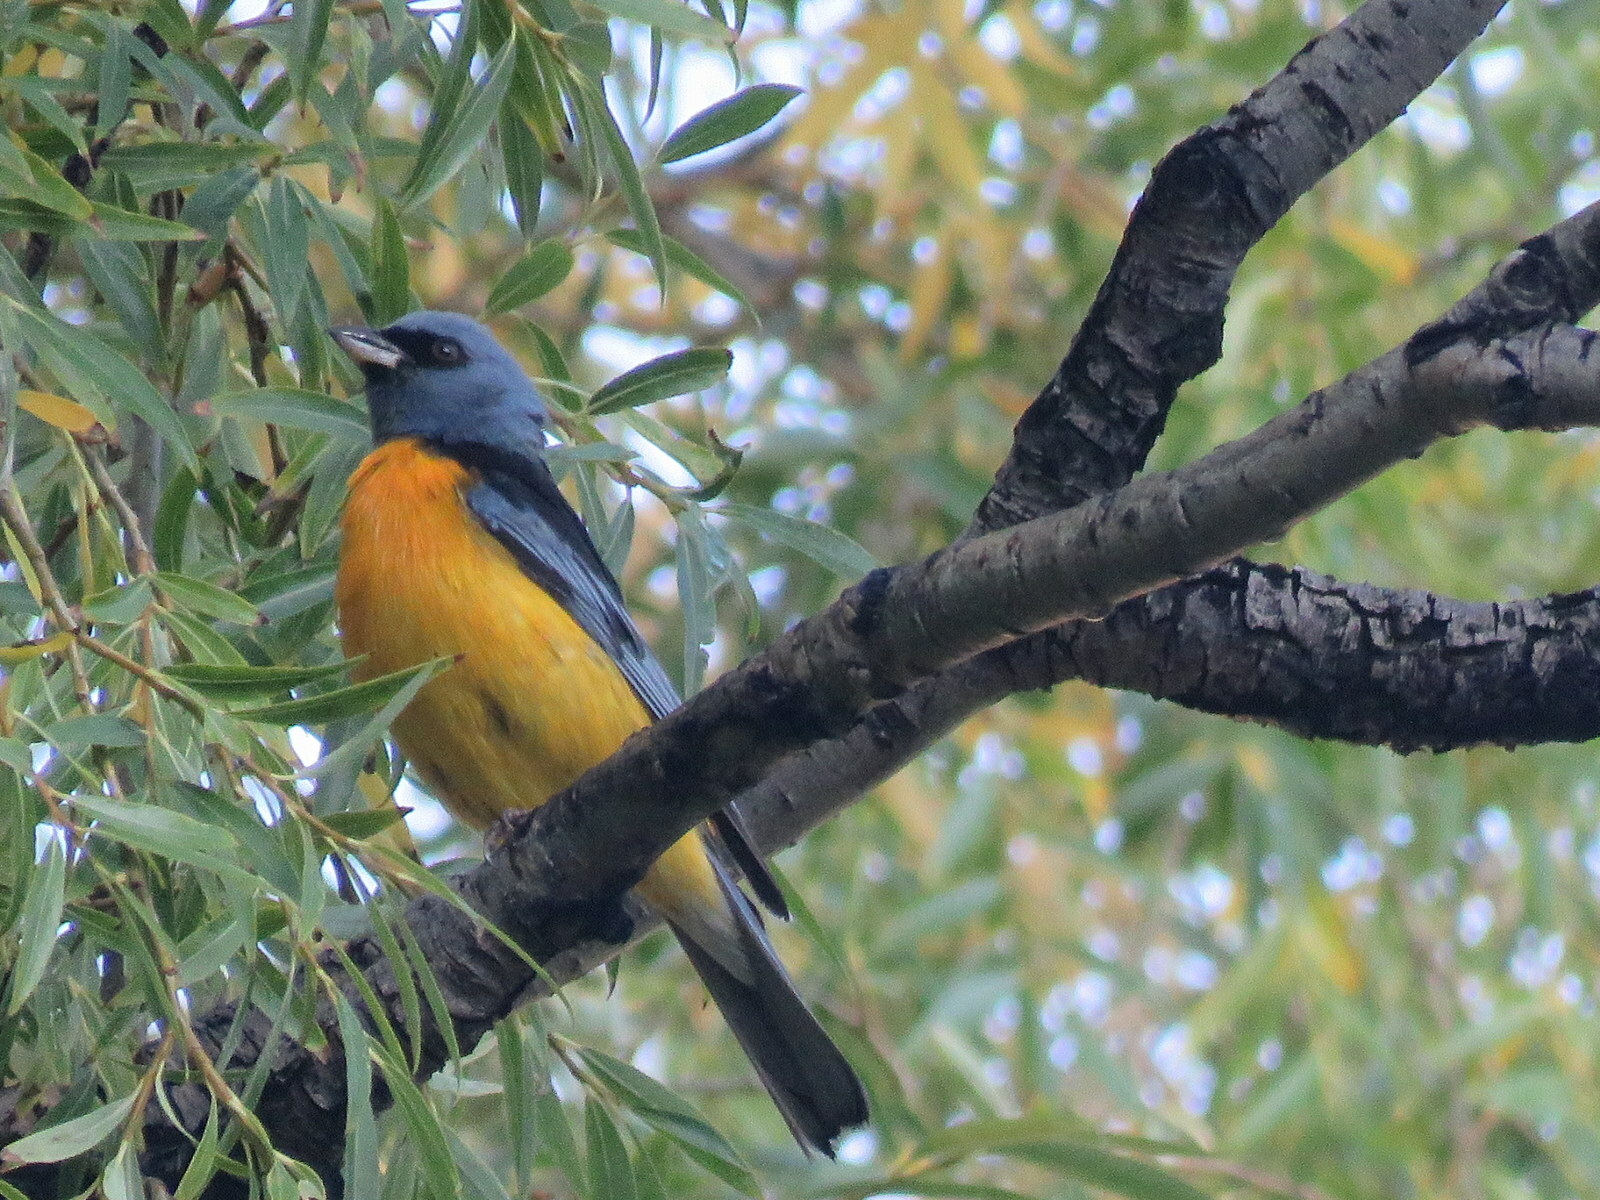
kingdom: Animalia
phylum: Chordata
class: Aves
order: Passeriformes
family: Thraupidae
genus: Rauenia
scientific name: Rauenia bonariensis
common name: Blue-and-yellow tanager
